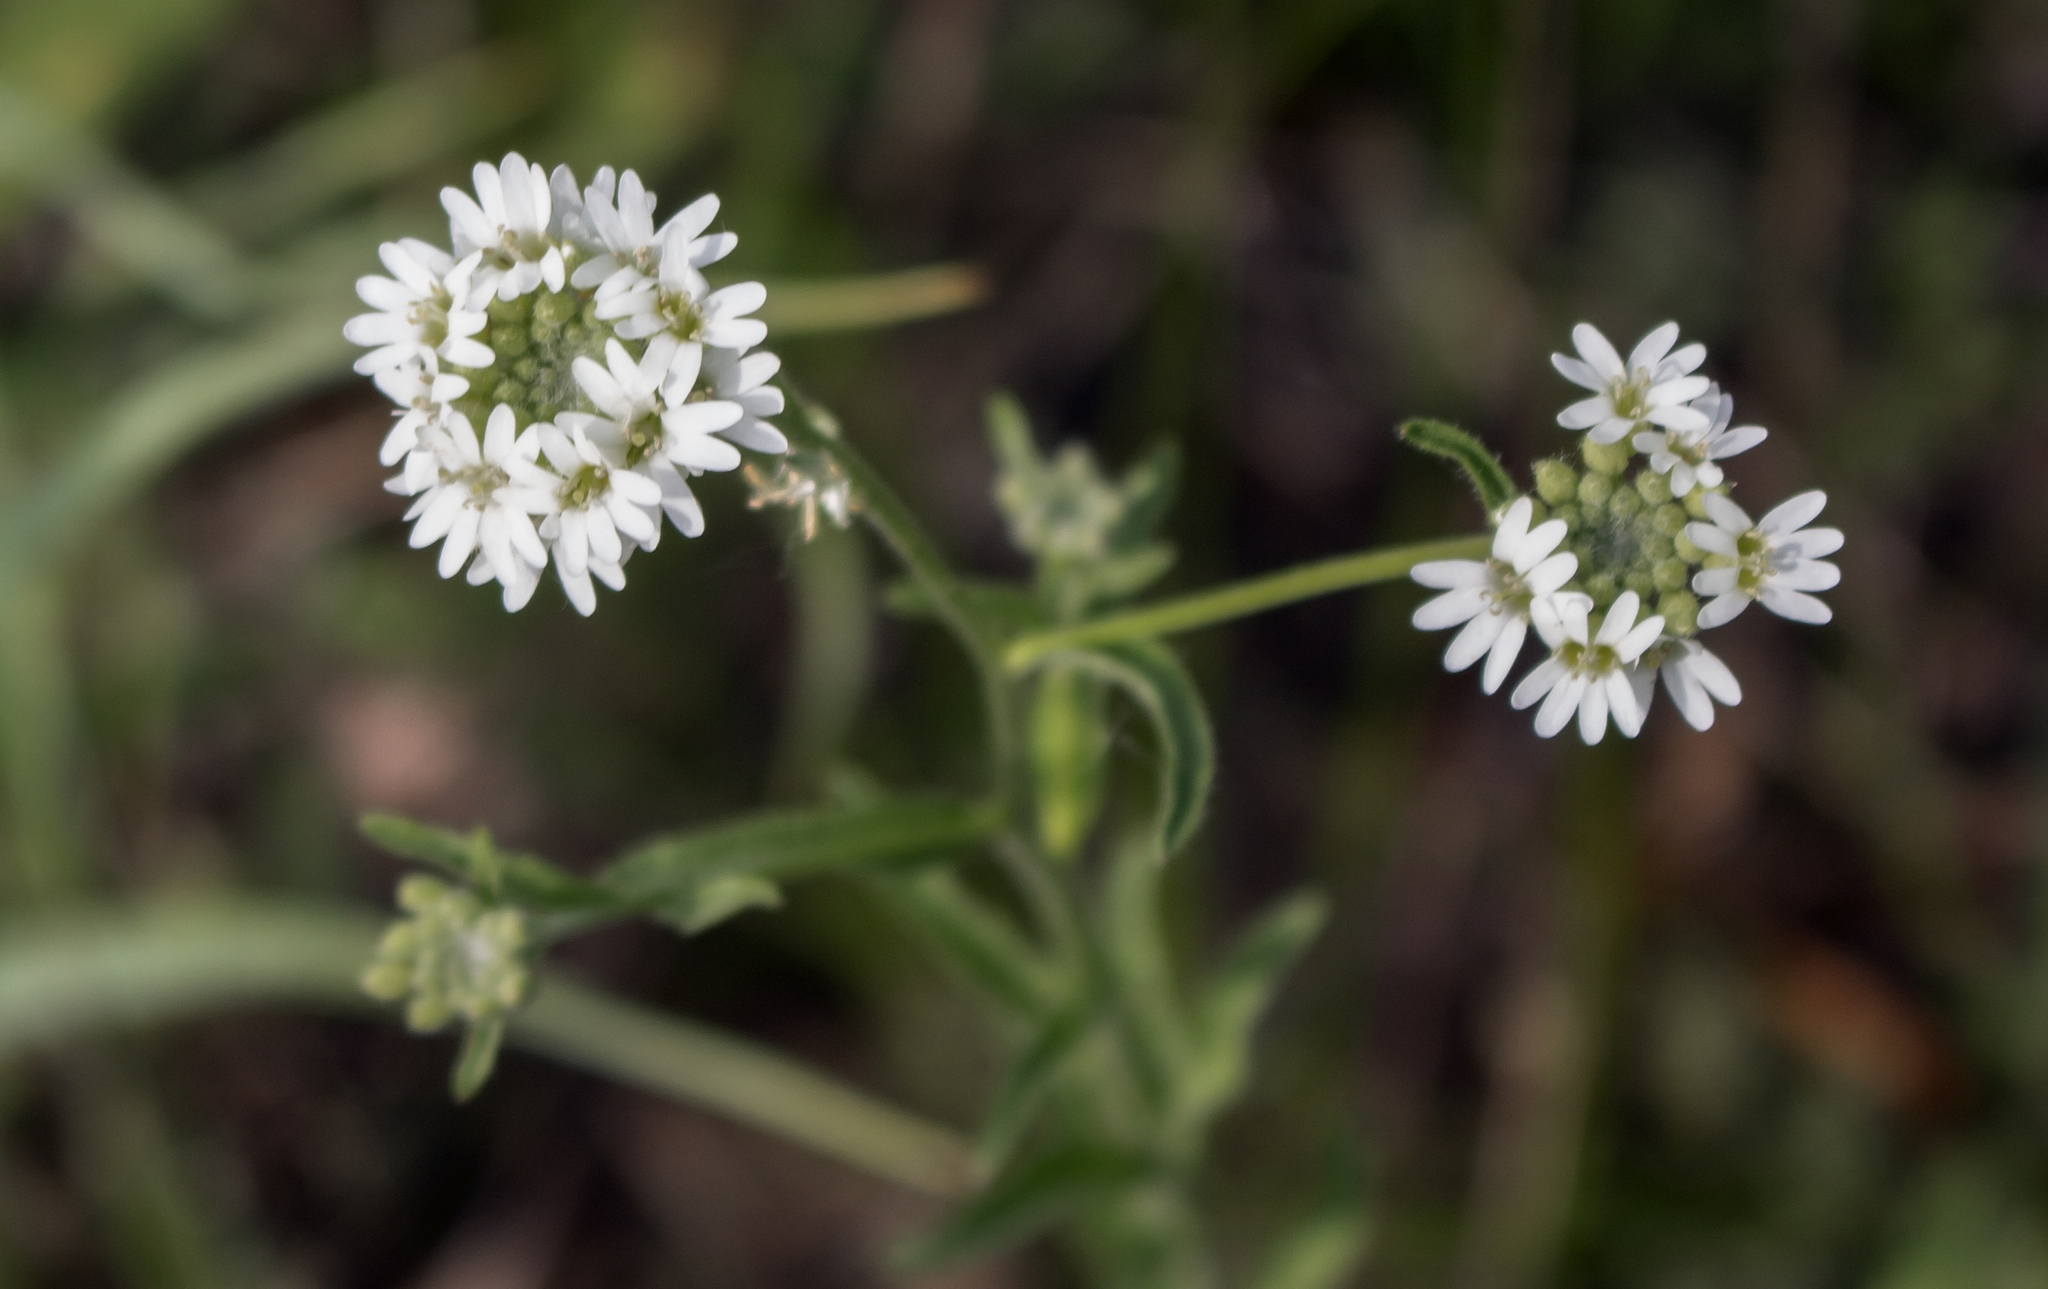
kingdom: Plantae
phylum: Tracheophyta
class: Magnoliopsida
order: Brassicales
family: Brassicaceae
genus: Berteroa
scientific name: Berteroa incana
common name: Hoary alison
